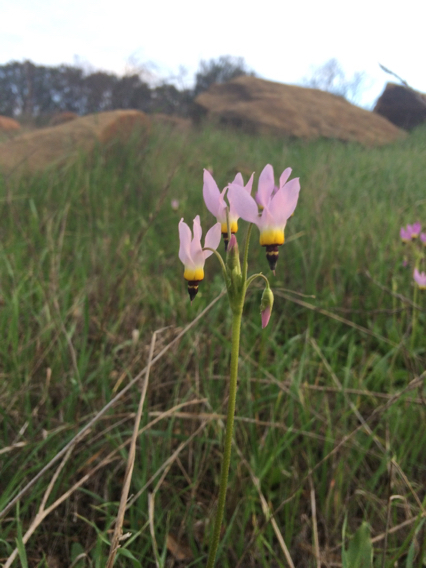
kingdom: Plantae
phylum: Tracheophyta
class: Magnoliopsida
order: Ericales
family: Primulaceae
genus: Dodecatheon
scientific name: Dodecatheon clevelandii
